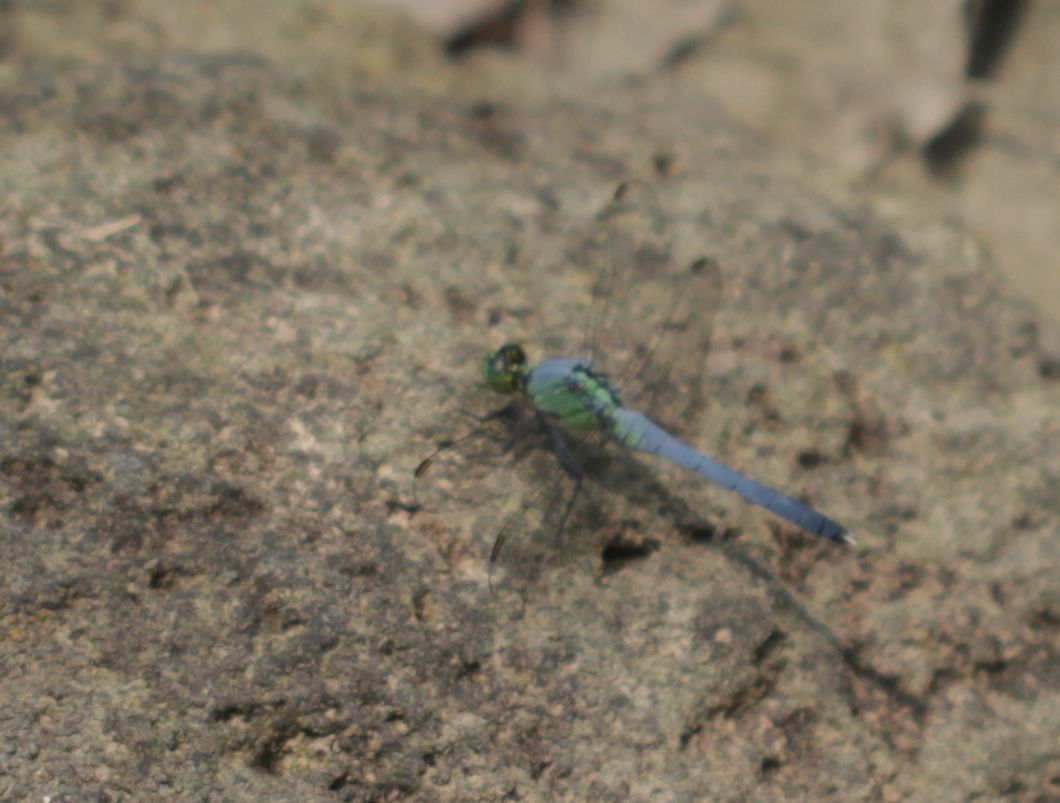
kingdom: Animalia
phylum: Arthropoda
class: Insecta
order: Odonata
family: Libellulidae
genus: Erythemis
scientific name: Erythemis simplicicollis
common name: Eastern pondhawk
